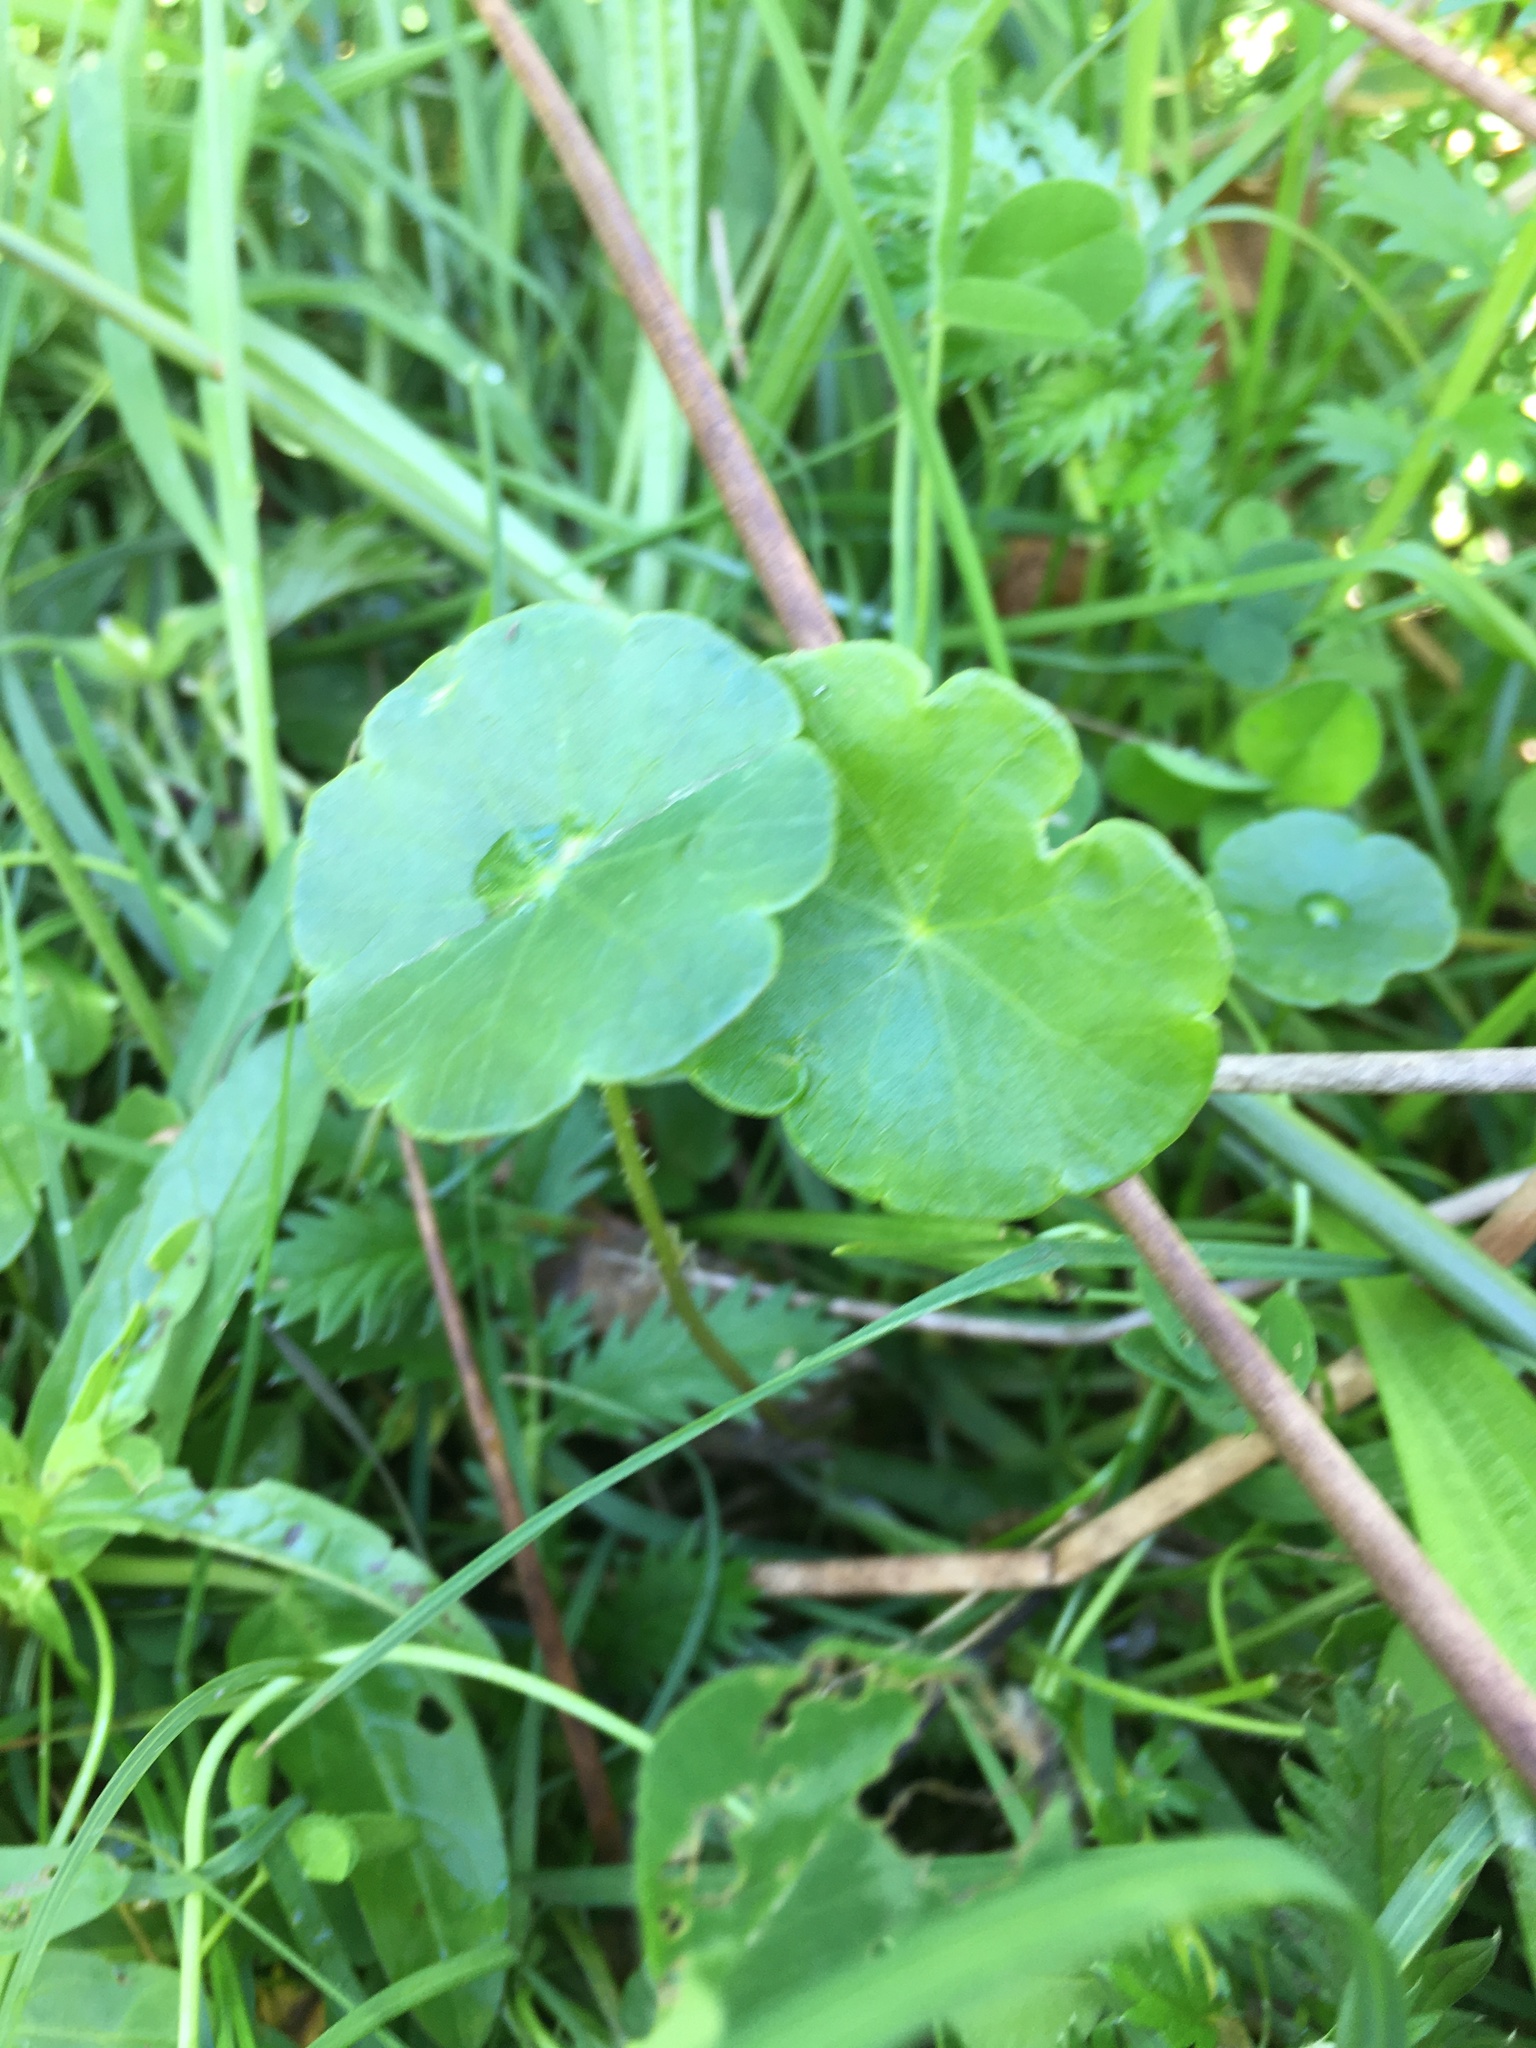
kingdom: Plantae
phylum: Tracheophyta
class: Magnoliopsida
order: Apiales
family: Araliaceae
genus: Hydrocotyle
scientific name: Hydrocotyle vulgaris
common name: Marsh pennywort
